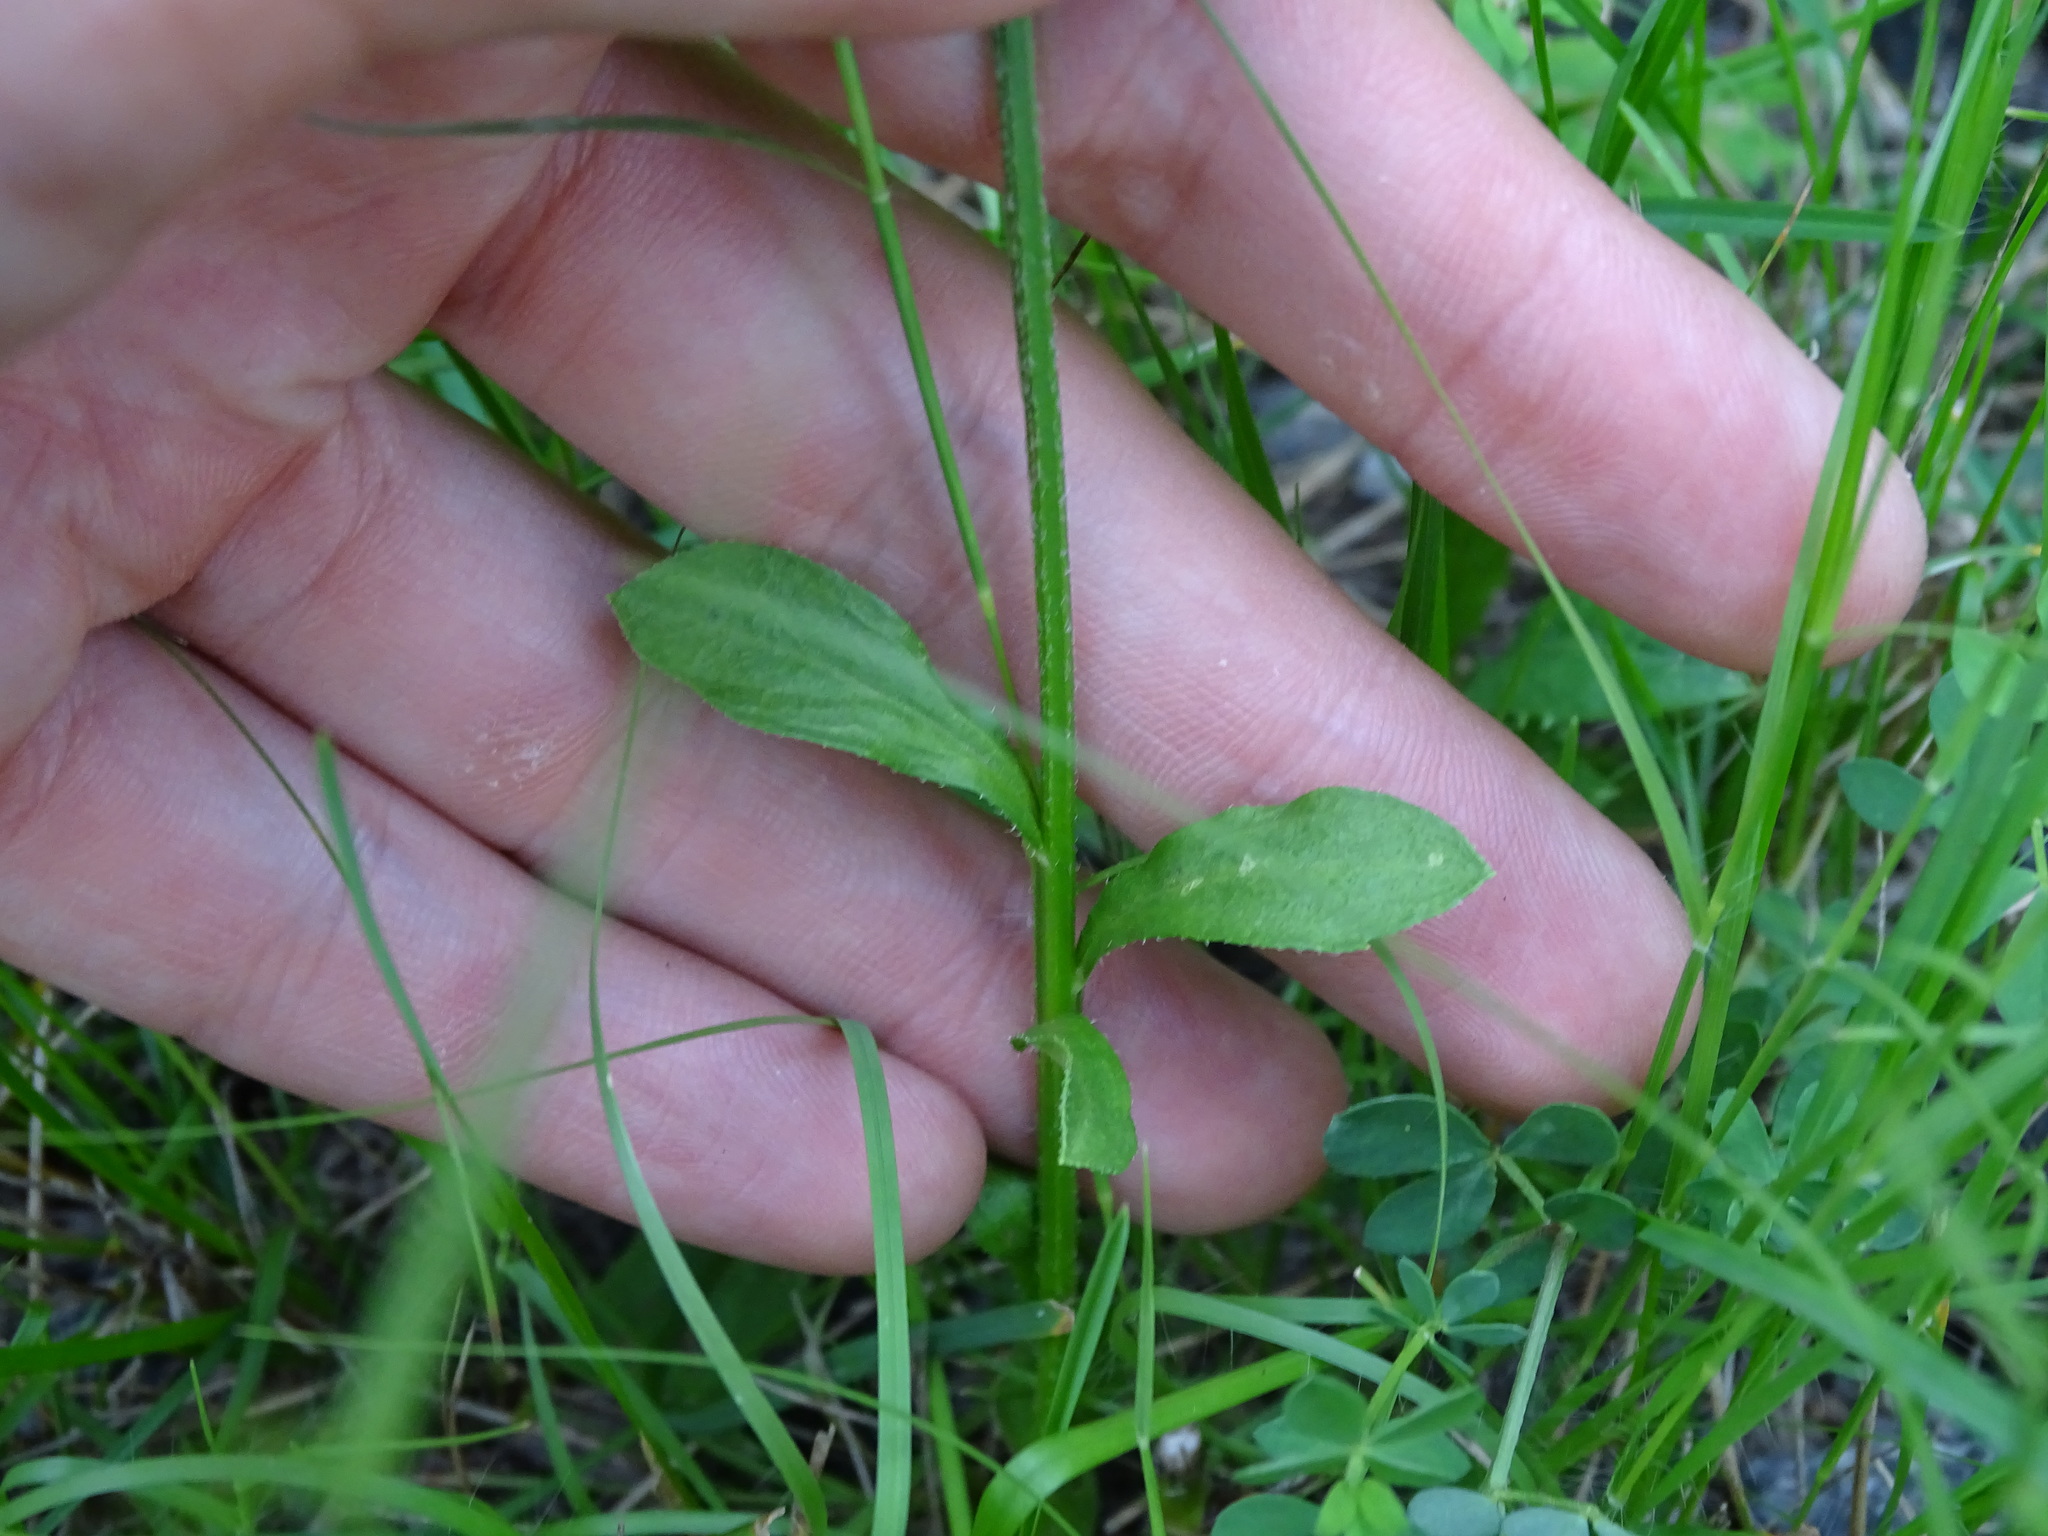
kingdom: Plantae
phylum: Tracheophyta
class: Magnoliopsida
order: Asterales
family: Asteraceae
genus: Erigeron
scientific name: Erigeron strigosus
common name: Common eastern fleabane
